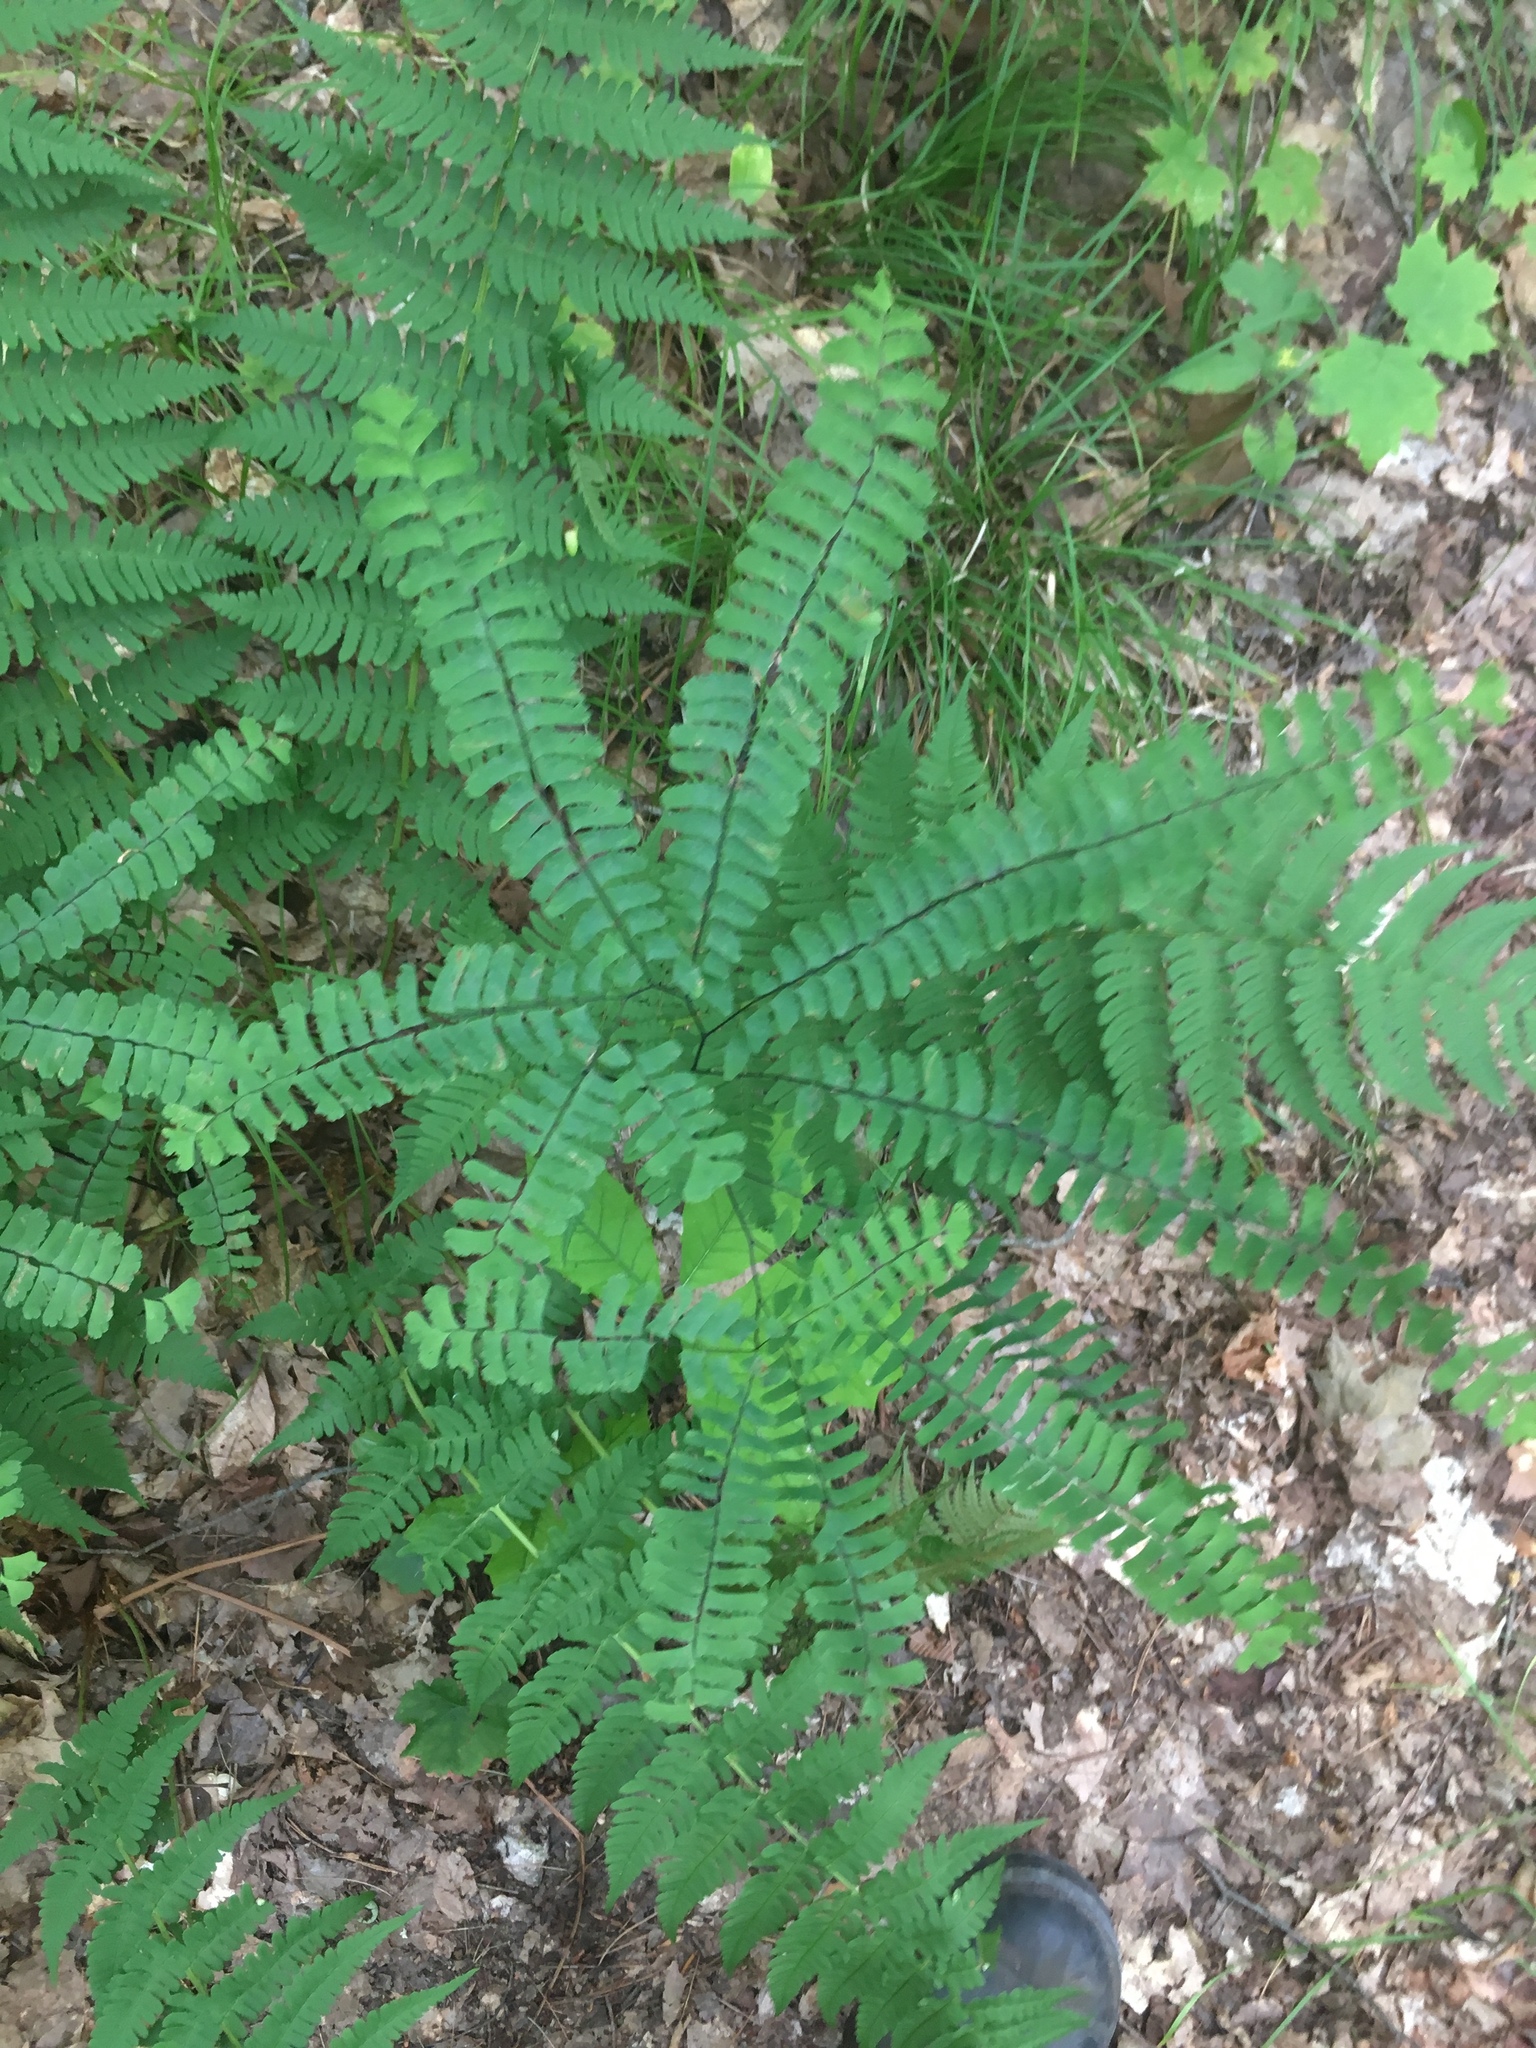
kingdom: Plantae
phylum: Tracheophyta
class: Polypodiopsida
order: Polypodiales
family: Pteridaceae
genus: Adiantum
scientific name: Adiantum pedatum
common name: Five-finger fern
